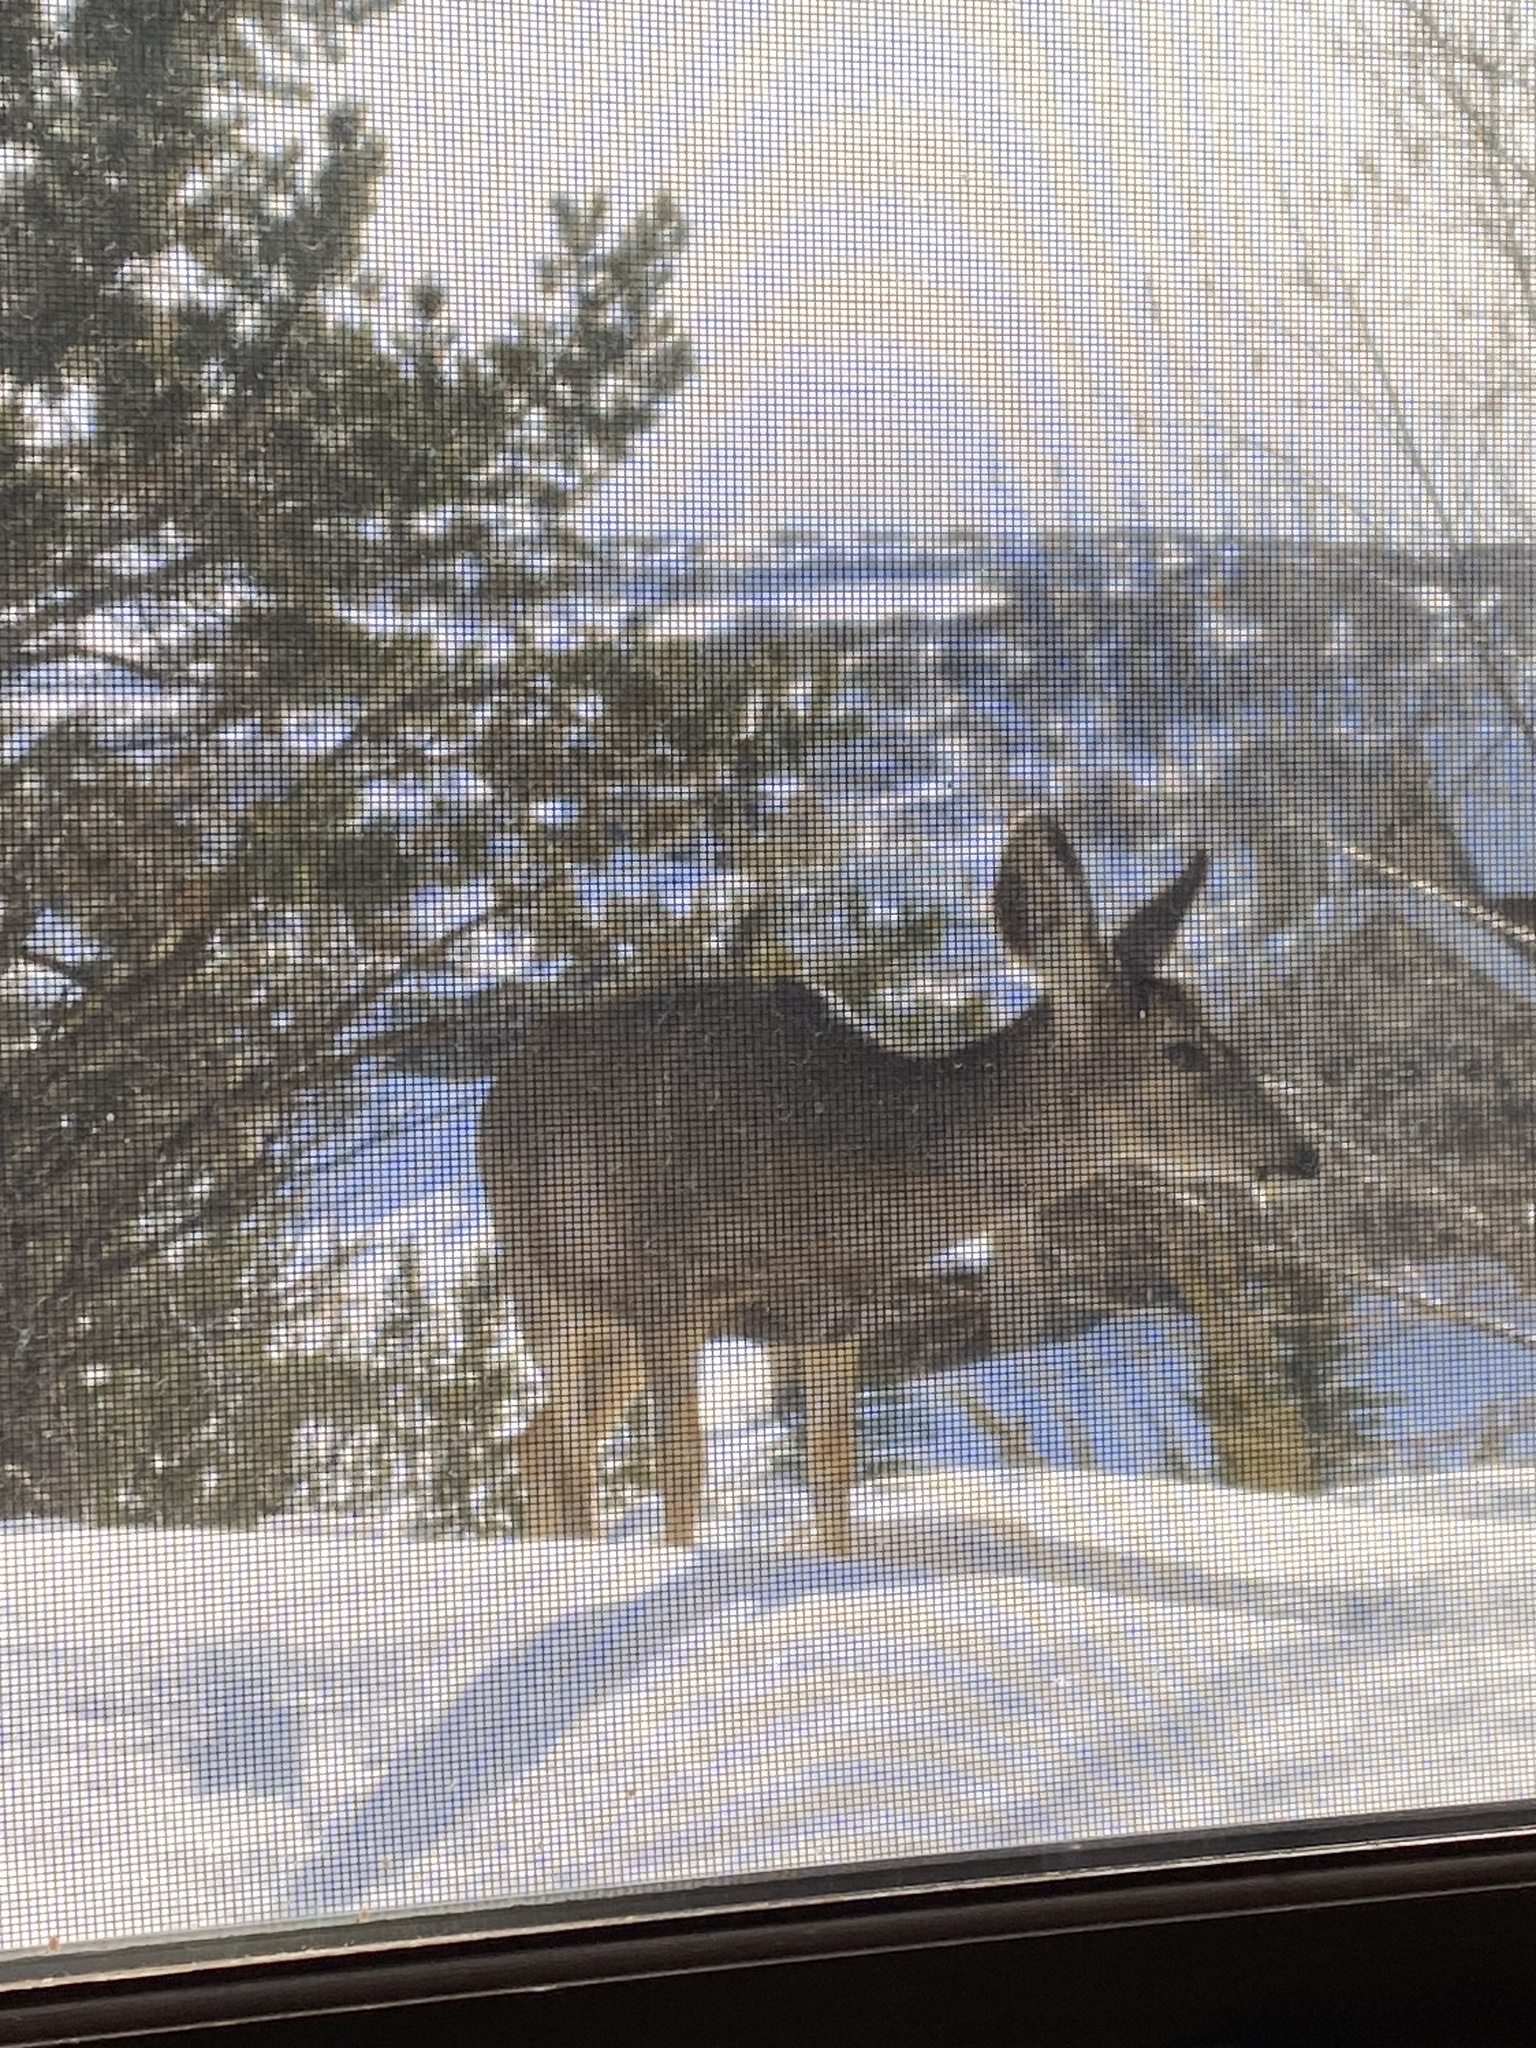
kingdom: Animalia
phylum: Chordata
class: Mammalia
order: Artiodactyla
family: Cervidae
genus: Odocoileus
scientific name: Odocoileus hemionus
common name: Mule deer
